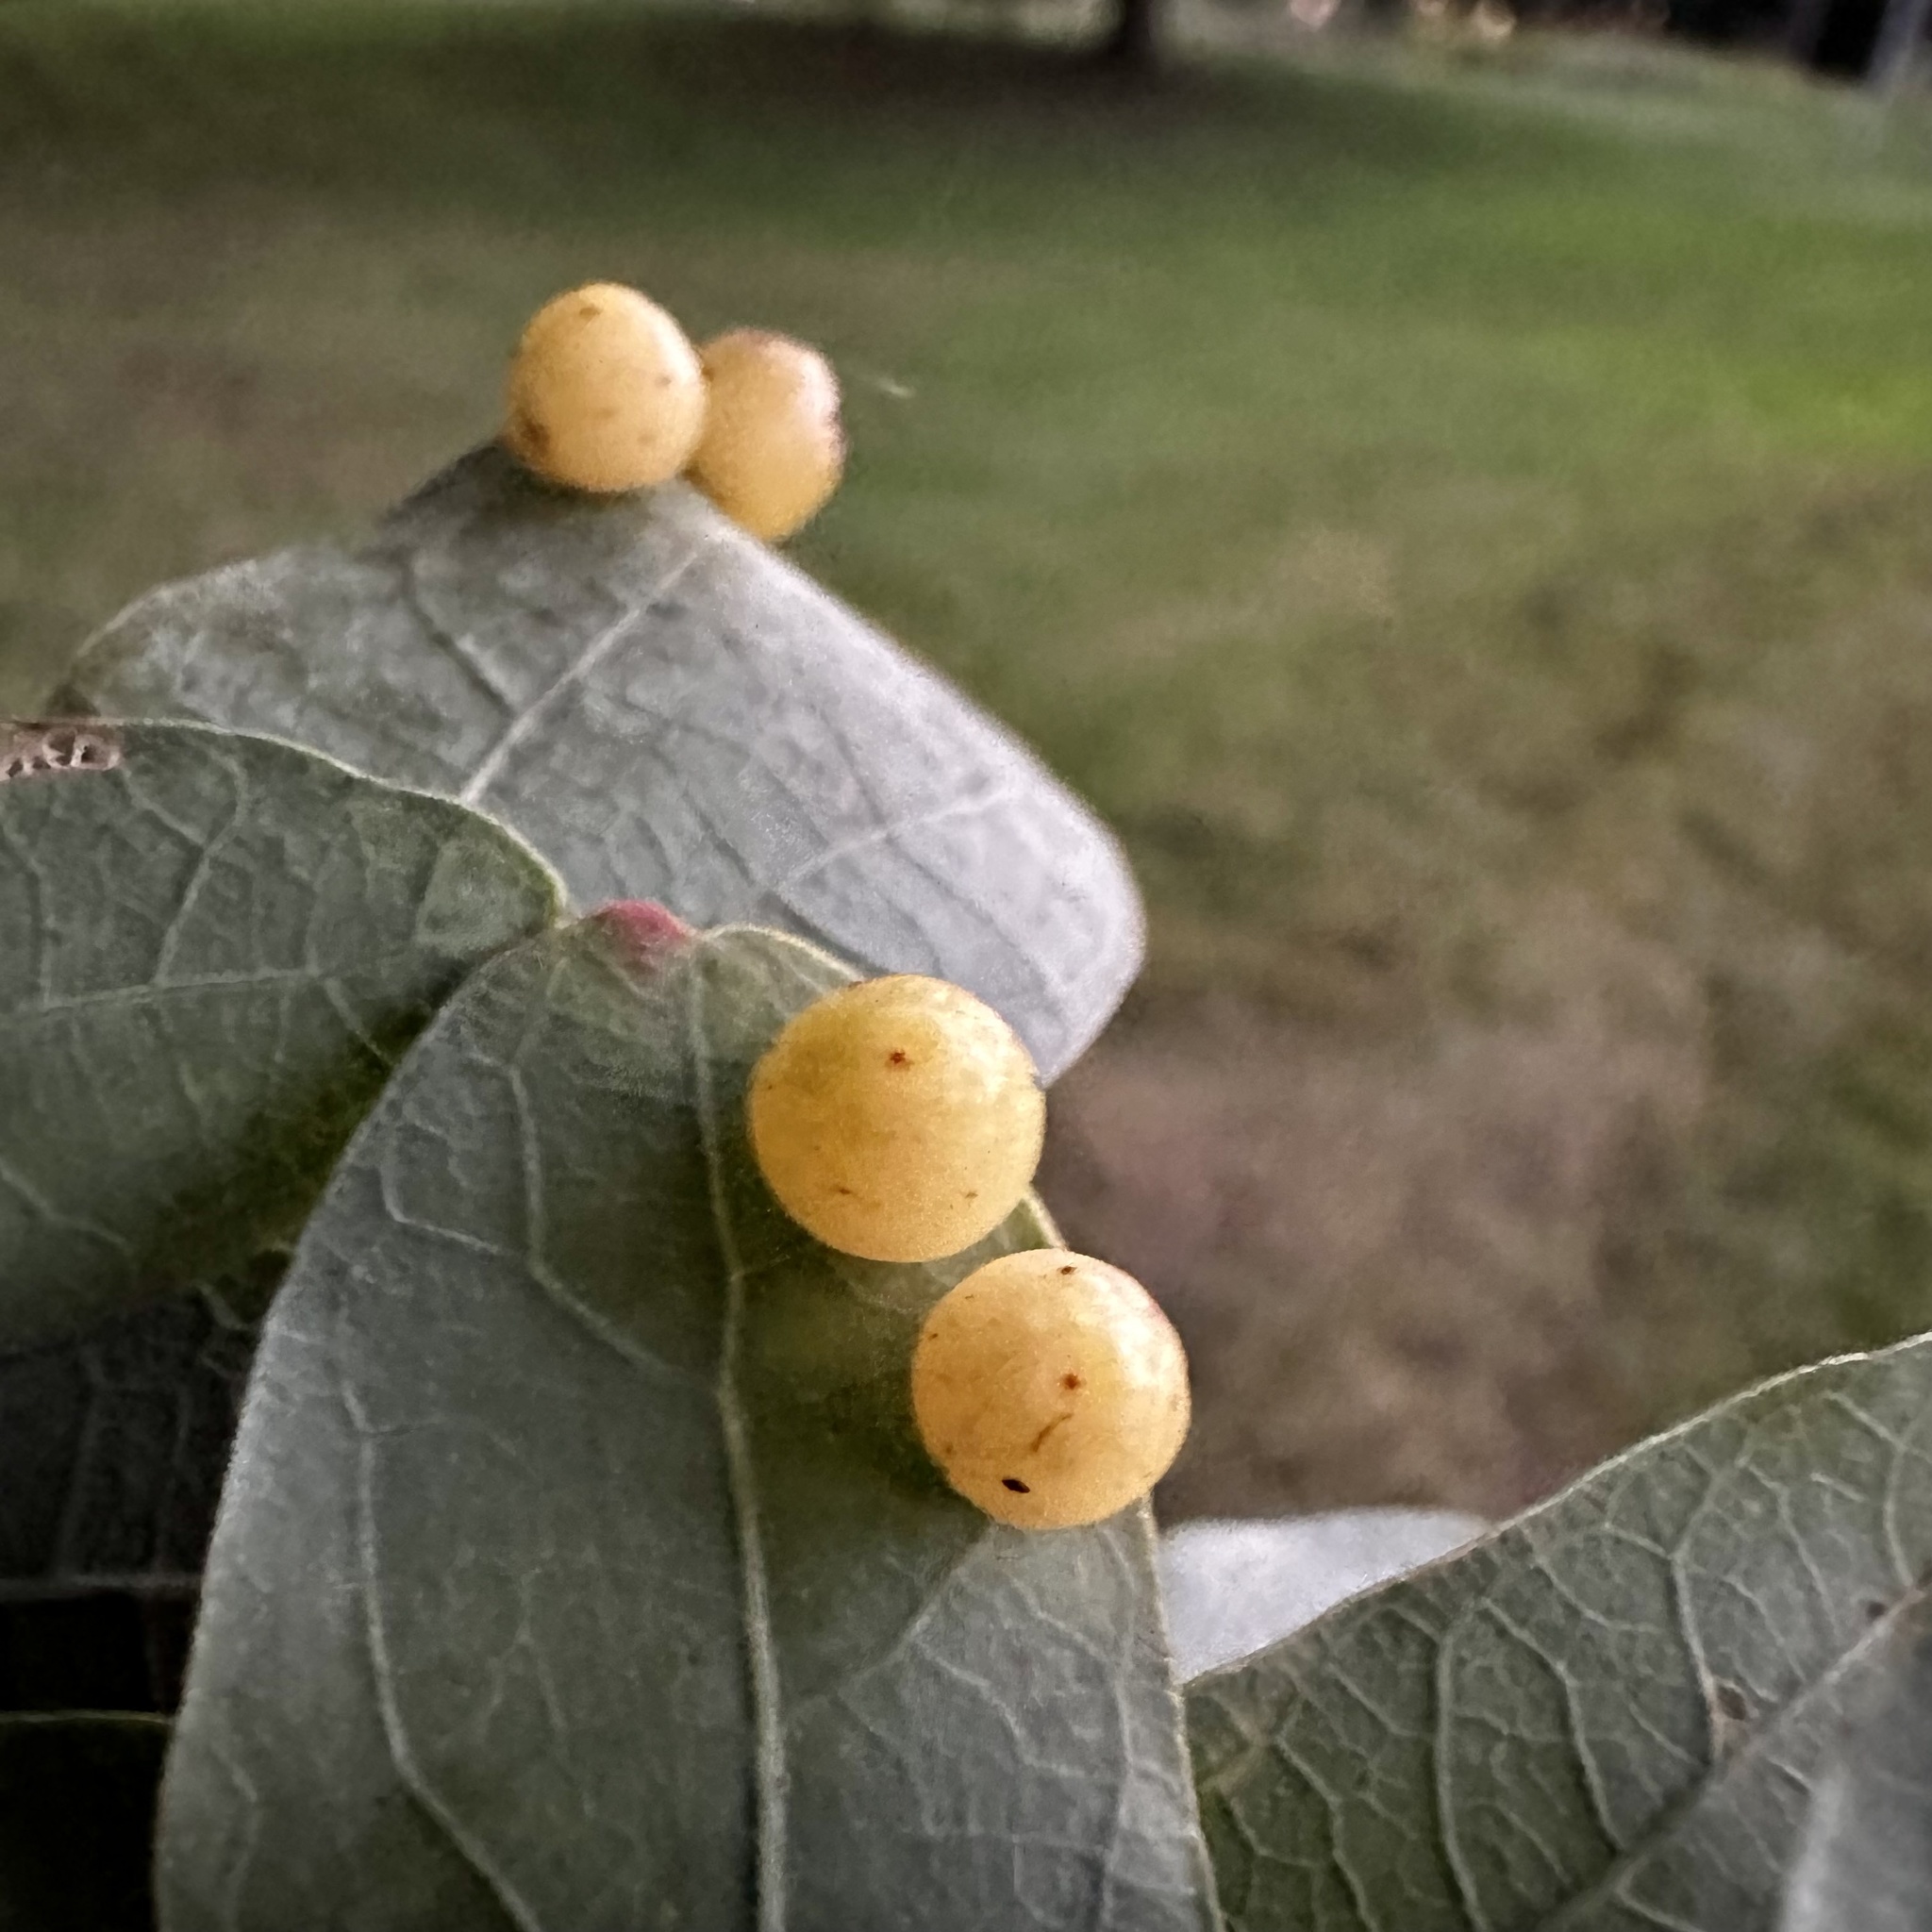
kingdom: Animalia
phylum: Arthropoda
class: Insecta
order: Hymenoptera
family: Cynipidae
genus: Andricus
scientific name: Andricus
